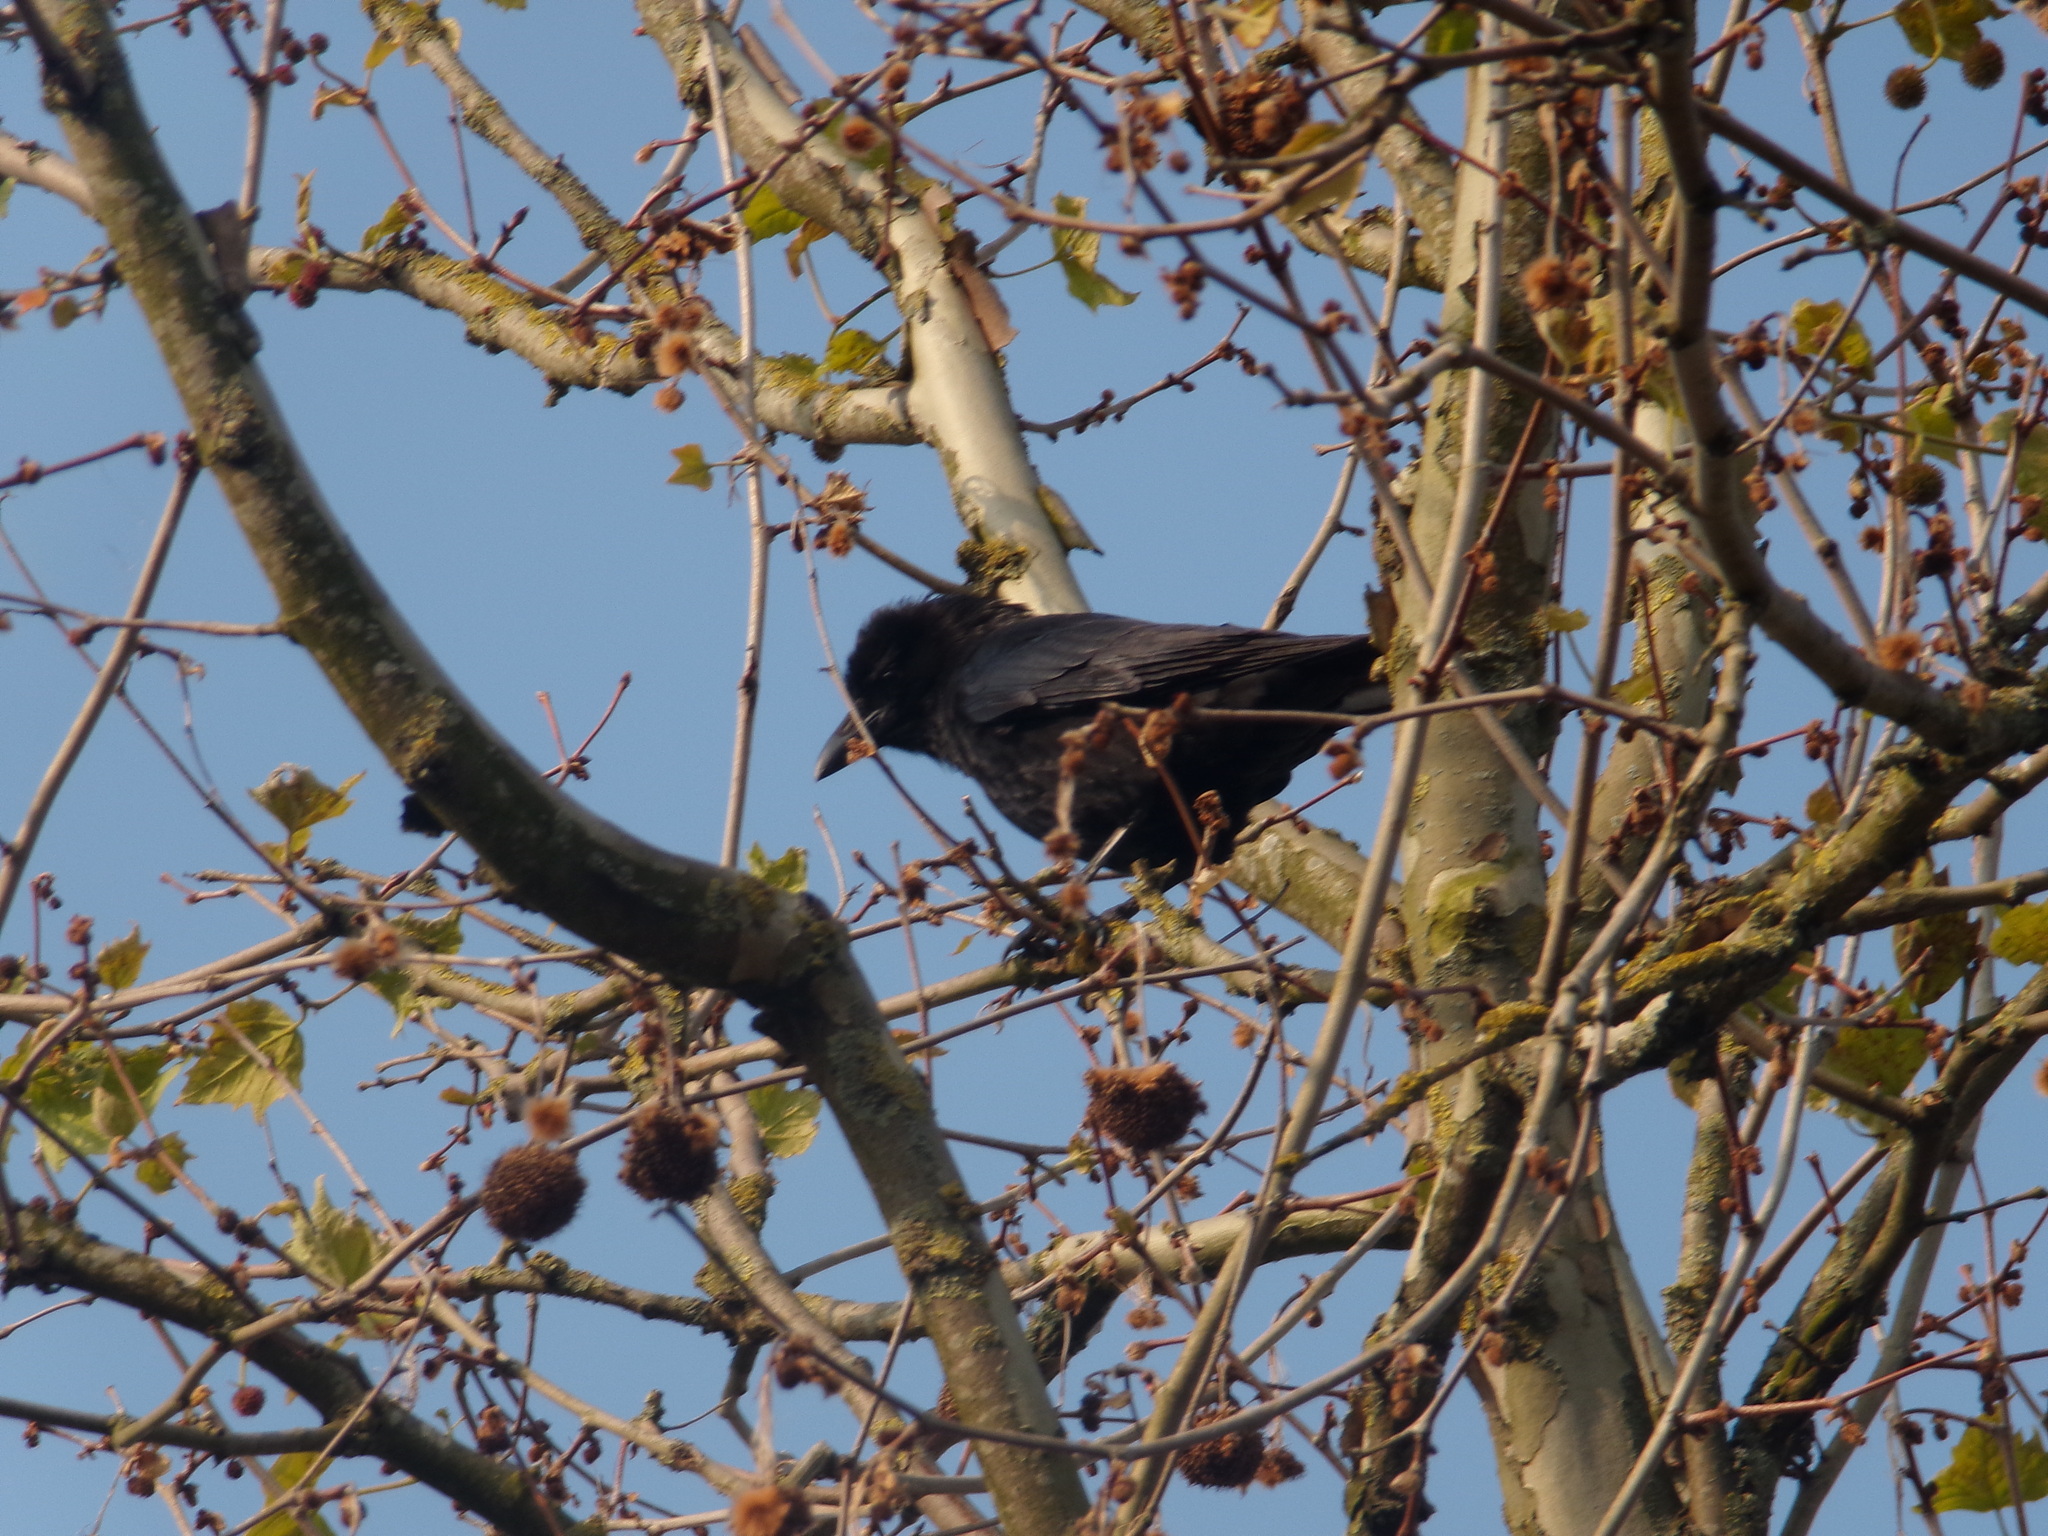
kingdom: Animalia
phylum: Chordata
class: Aves
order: Passeriformes
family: Corvidae
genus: Corvus
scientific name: Corvus corone
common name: Carrion crow
